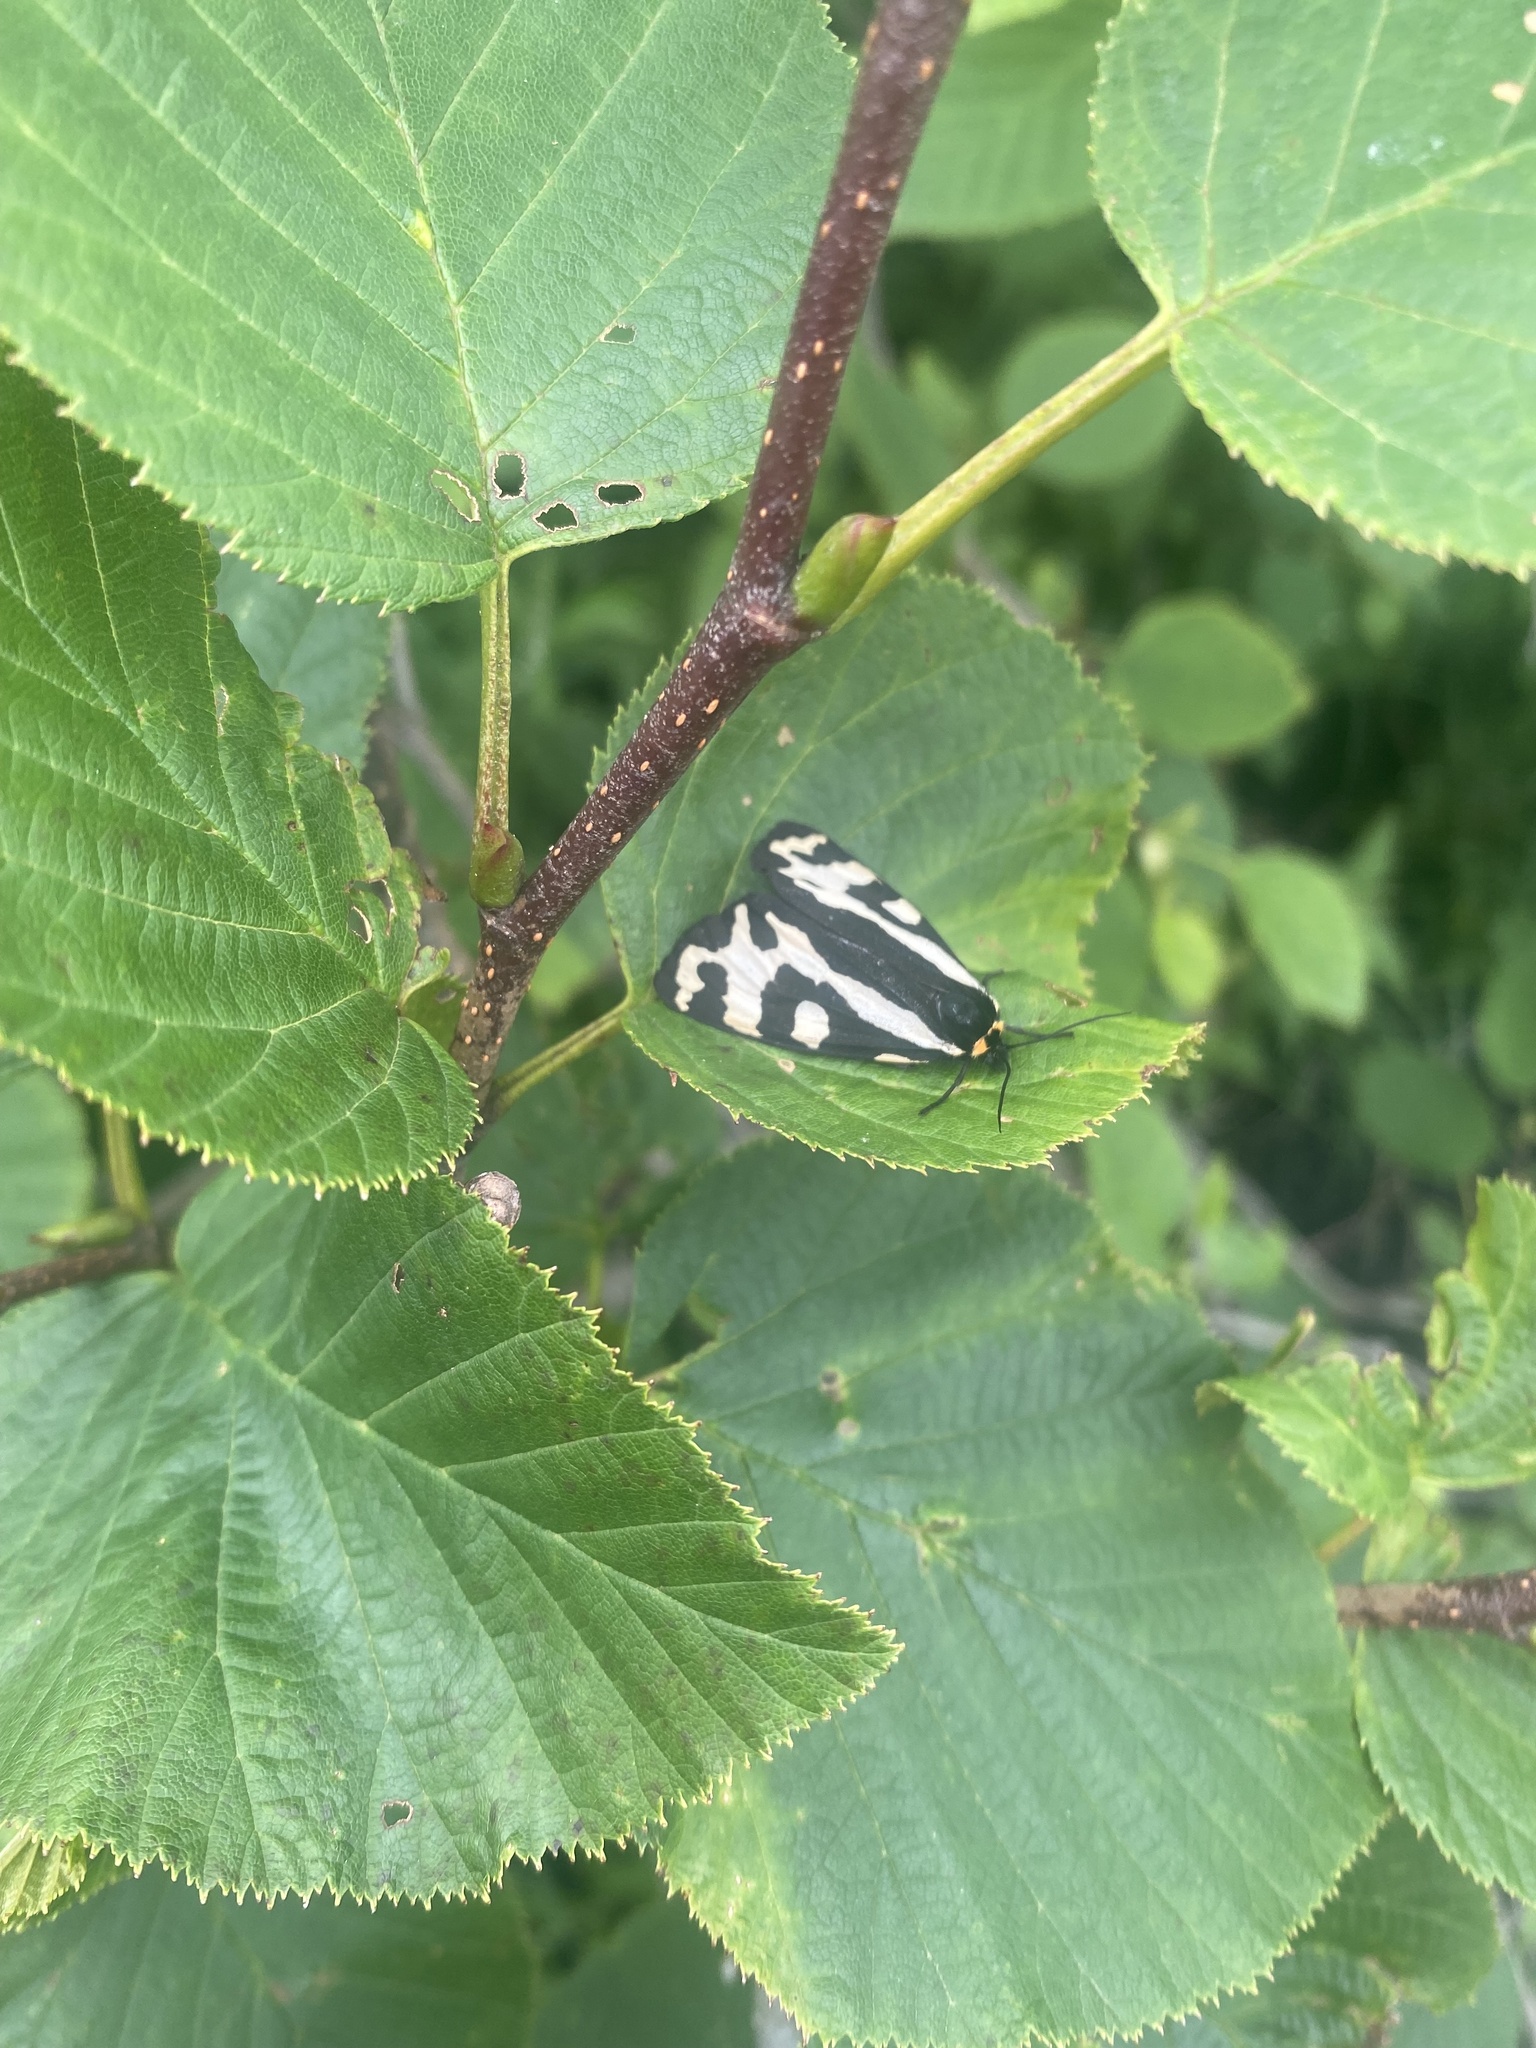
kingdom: Animalia
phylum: Arthropoda
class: Insecta
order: Lepidoptera
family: Erebidae
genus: Parasemia
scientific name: Parasemia plantaginis
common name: Wood tiger
